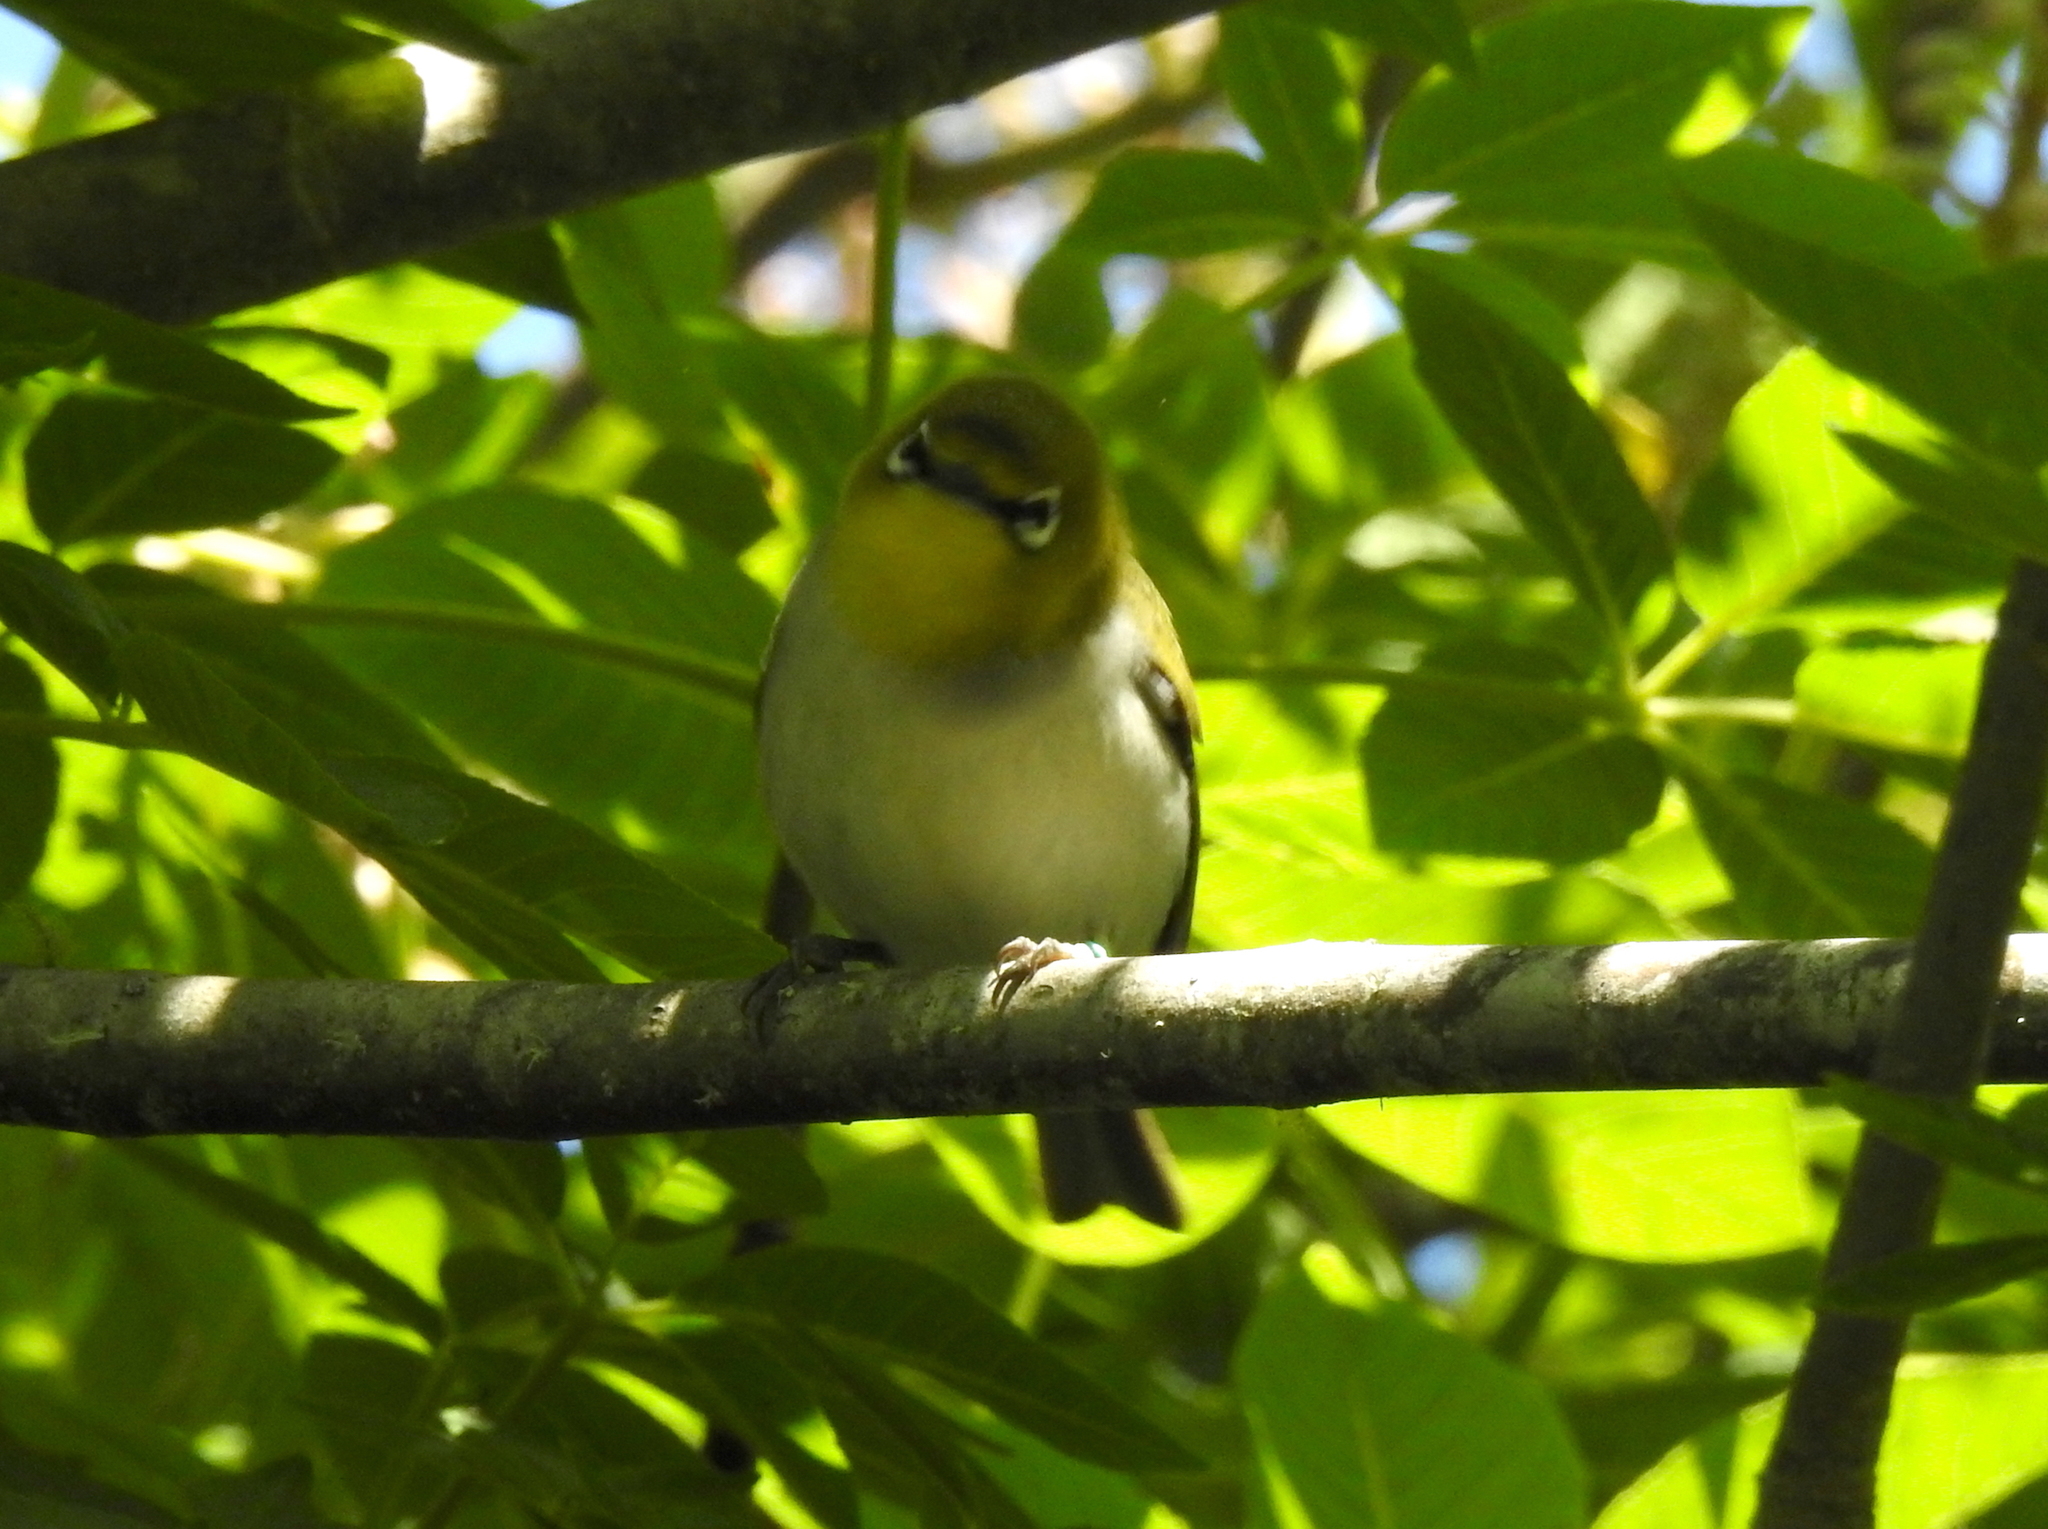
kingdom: Animalia
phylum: Chordata
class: Aves
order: Passeriformes
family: Zosteropidae
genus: Zosterops
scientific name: Zosterops simplex
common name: Swinhoe's white-eye
